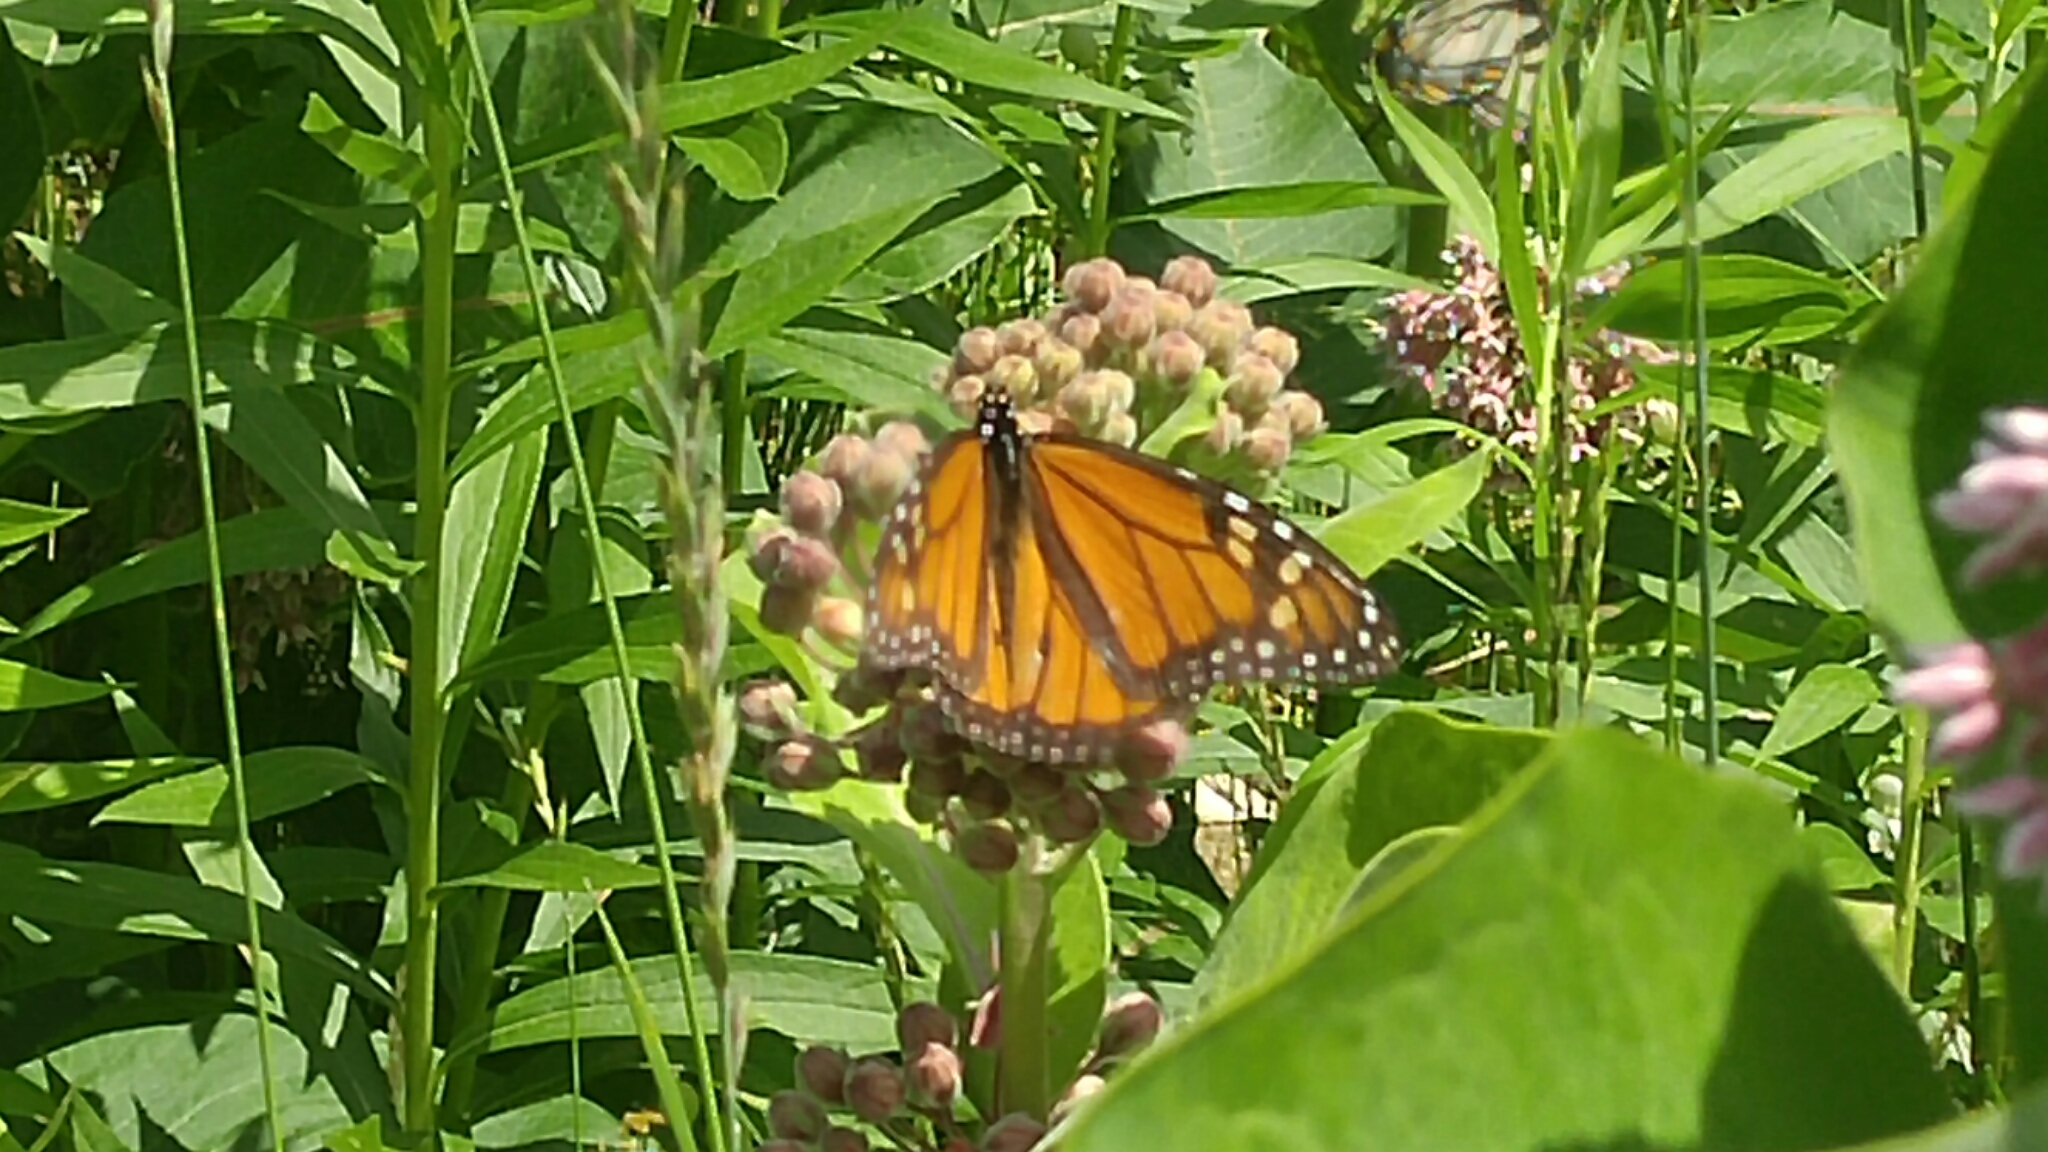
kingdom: Animalia
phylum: Arthropoda
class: Insecta
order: Lepidoptera
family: Nymphalidae
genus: Danaus
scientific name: Danaus plexippus
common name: Monarch
